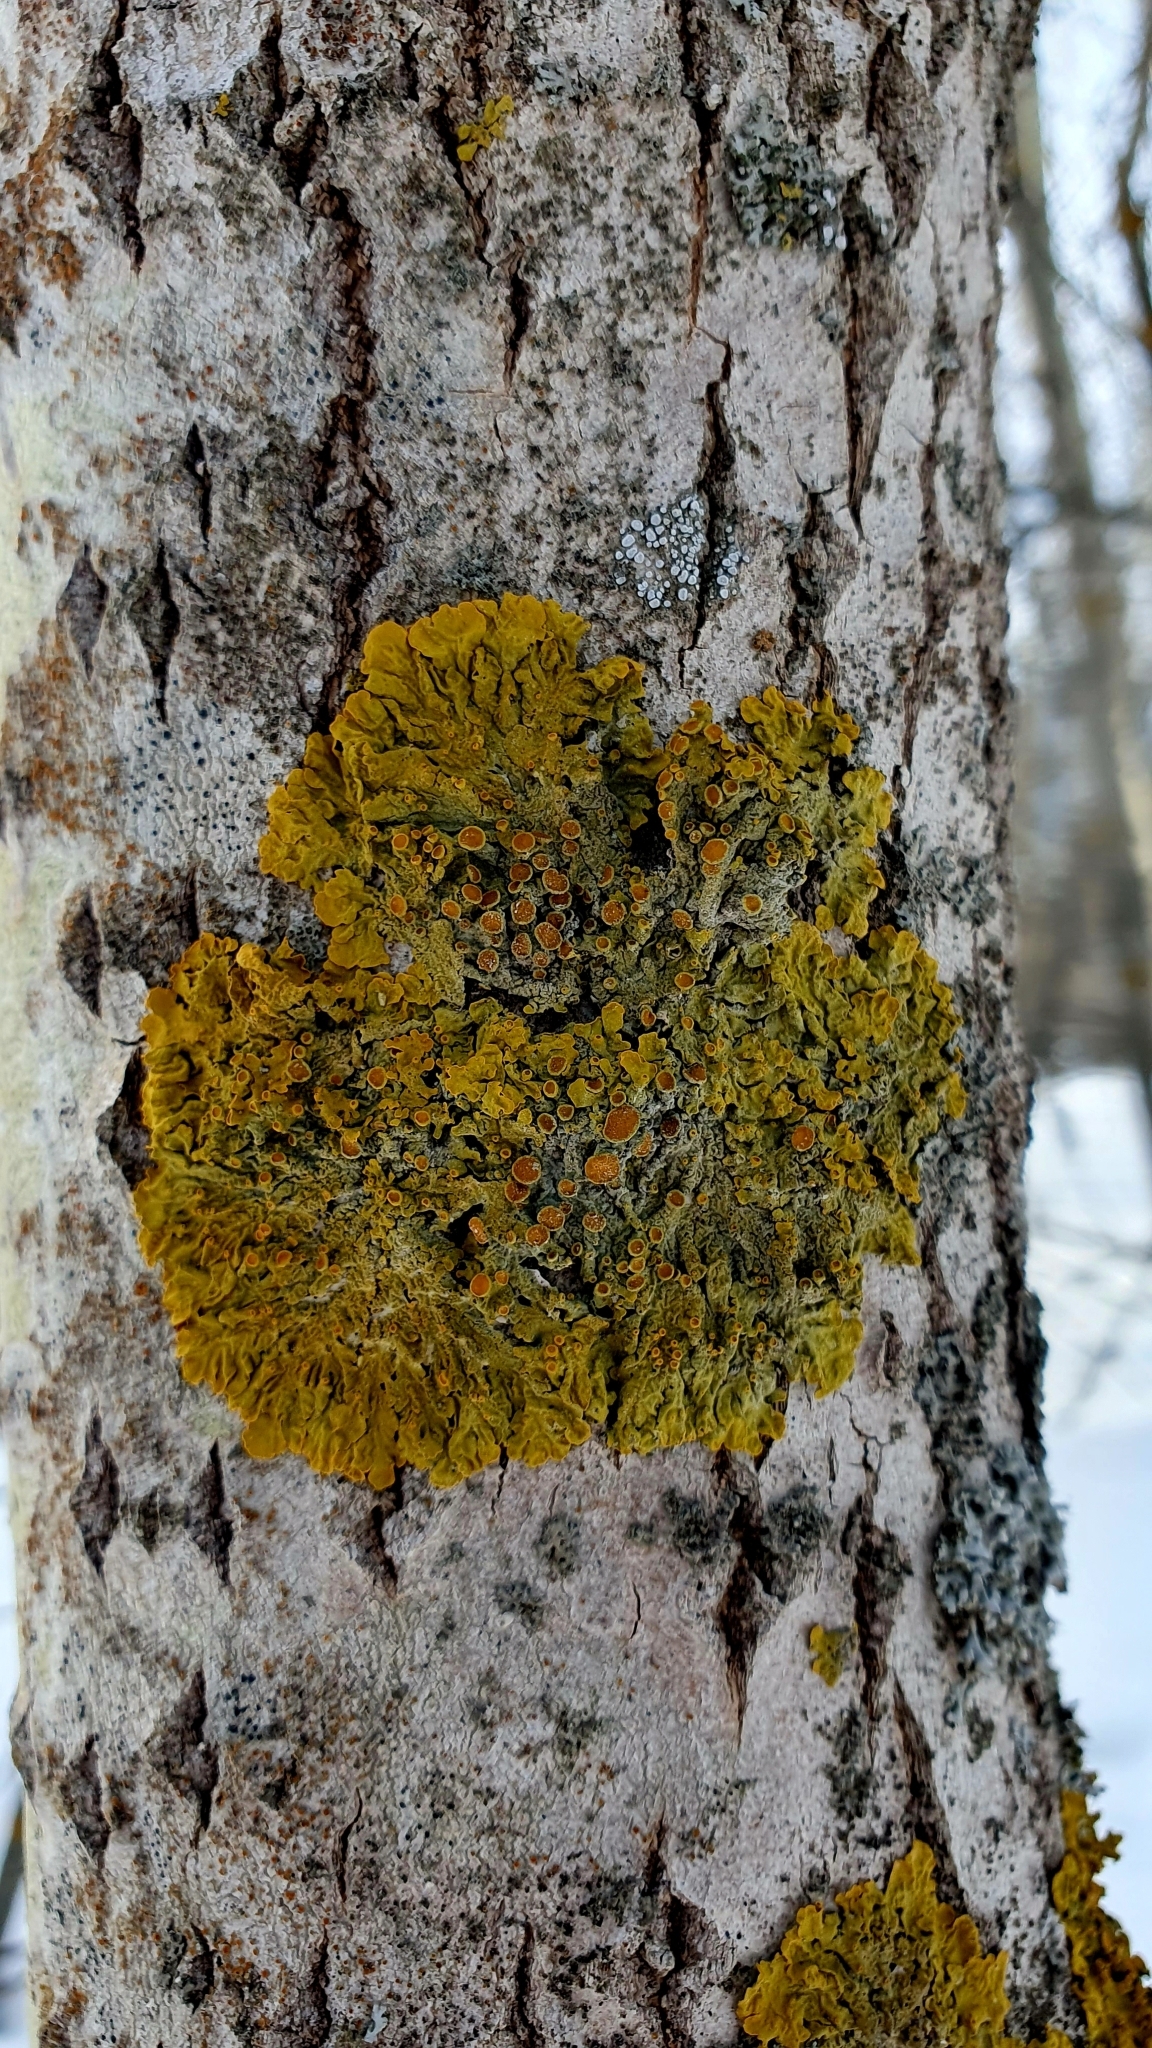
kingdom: Fungi
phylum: Ascomycota
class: Lecanoromycetes
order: Teloschistales
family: Teloschistaceae
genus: Xanthoria
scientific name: Xanthoria parietina
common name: Common orange lichen
